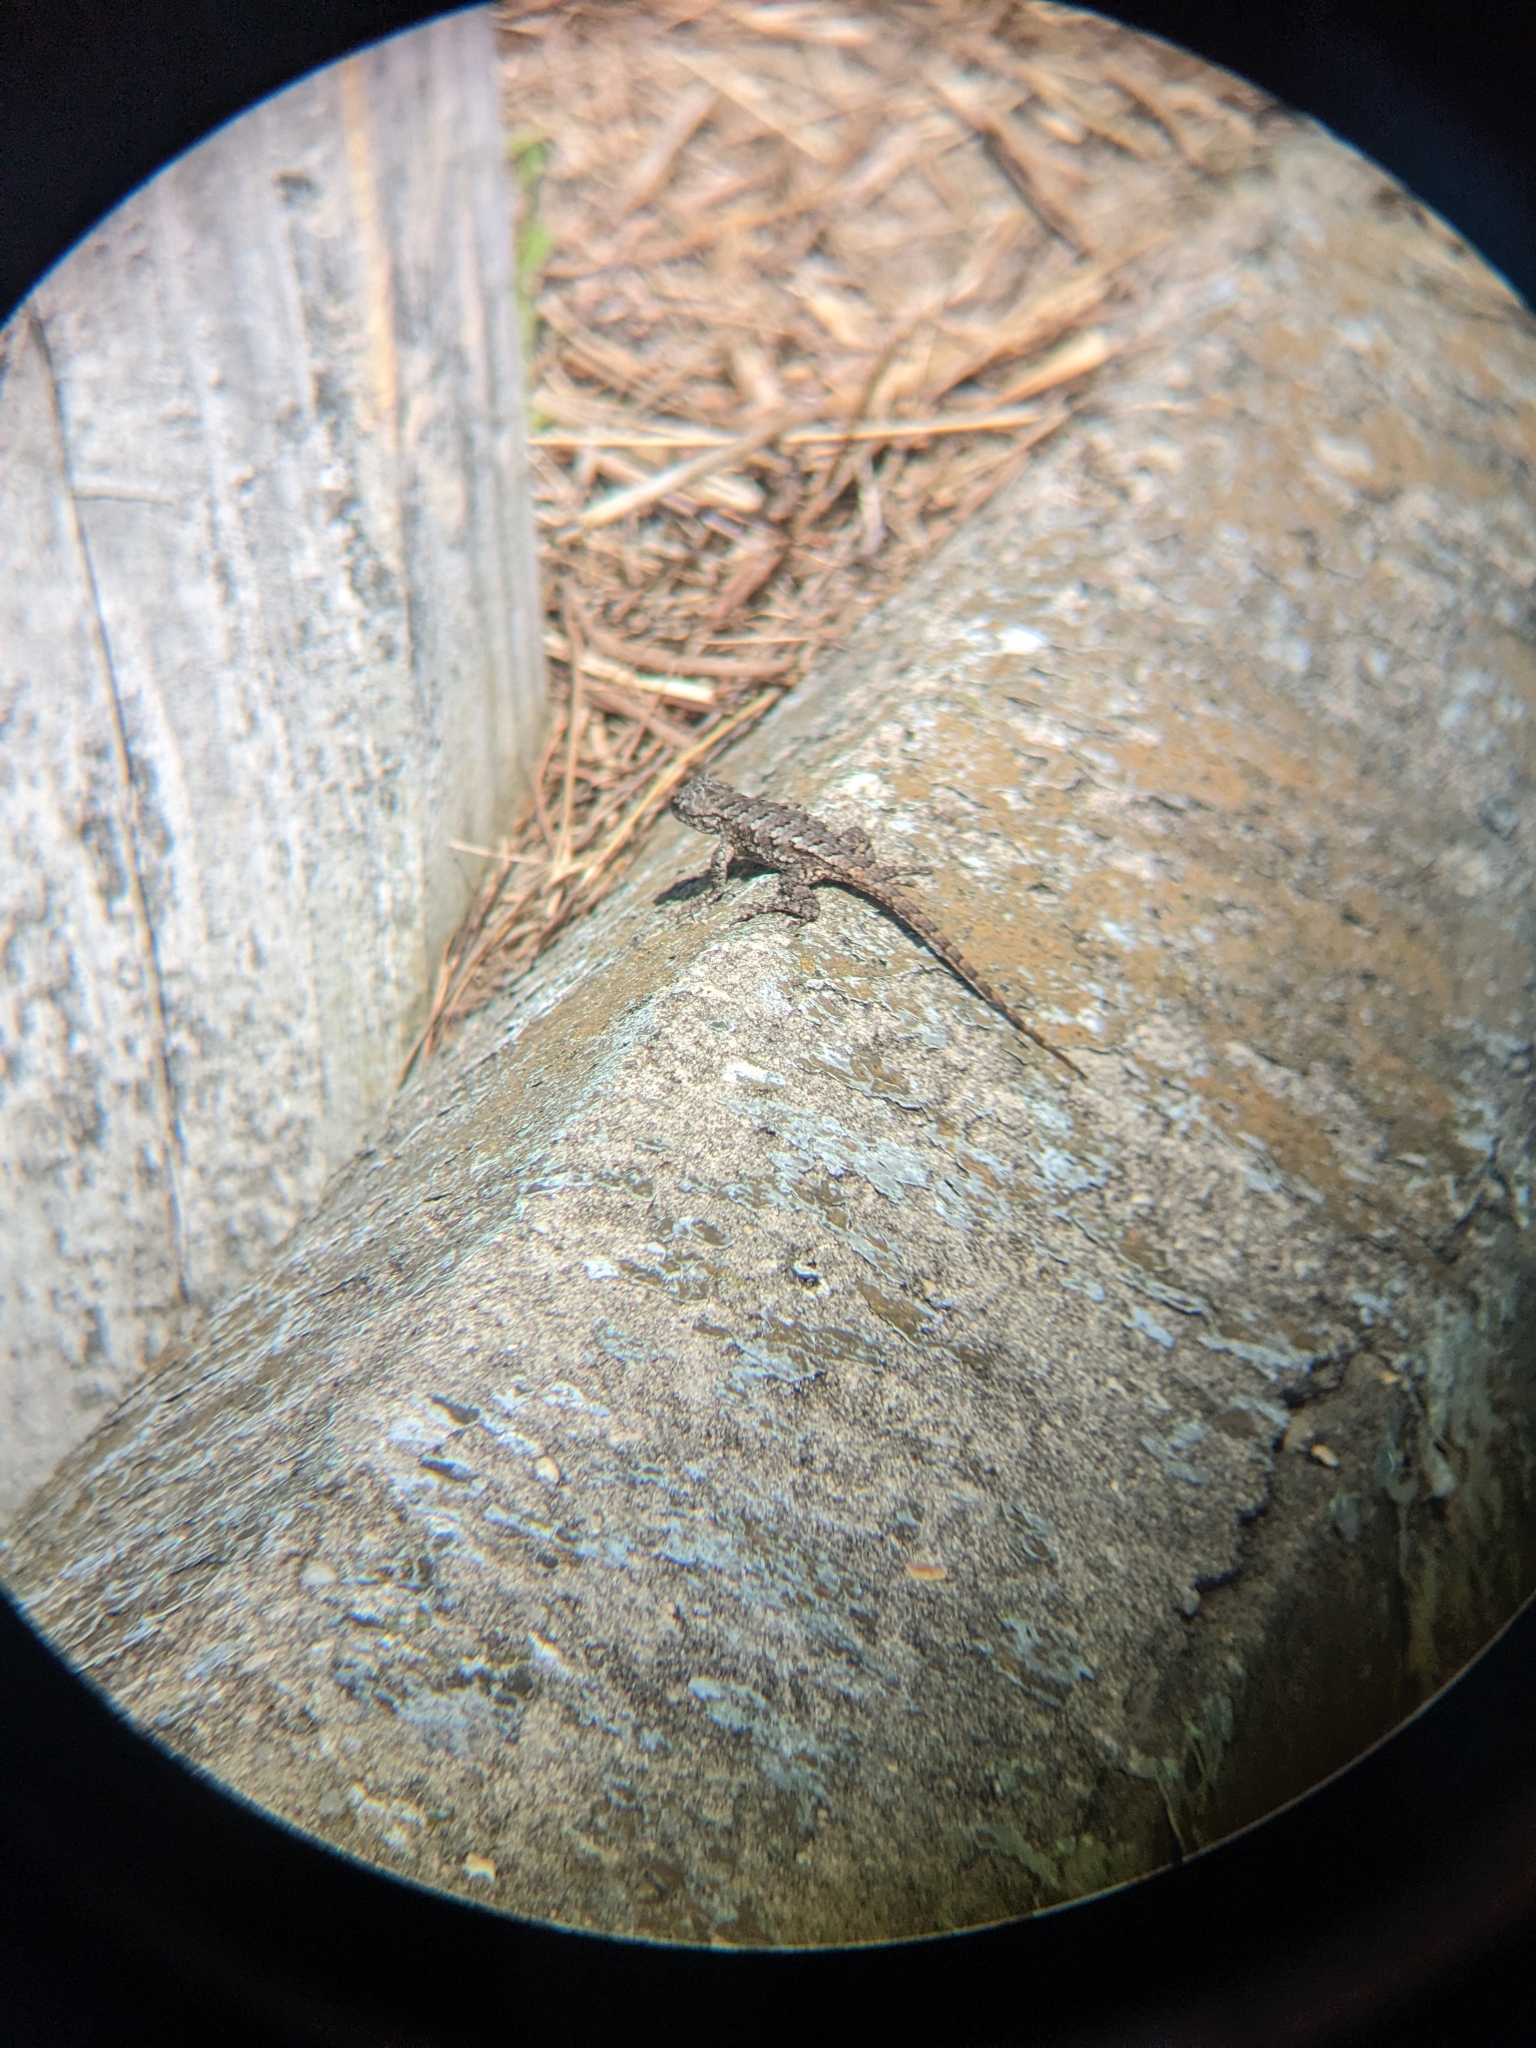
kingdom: Animalia
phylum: Chordata
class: Squamata
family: Phrynosomatidae
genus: Sceloporus
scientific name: Sceloporus undulatus
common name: Eastern fence lizard
